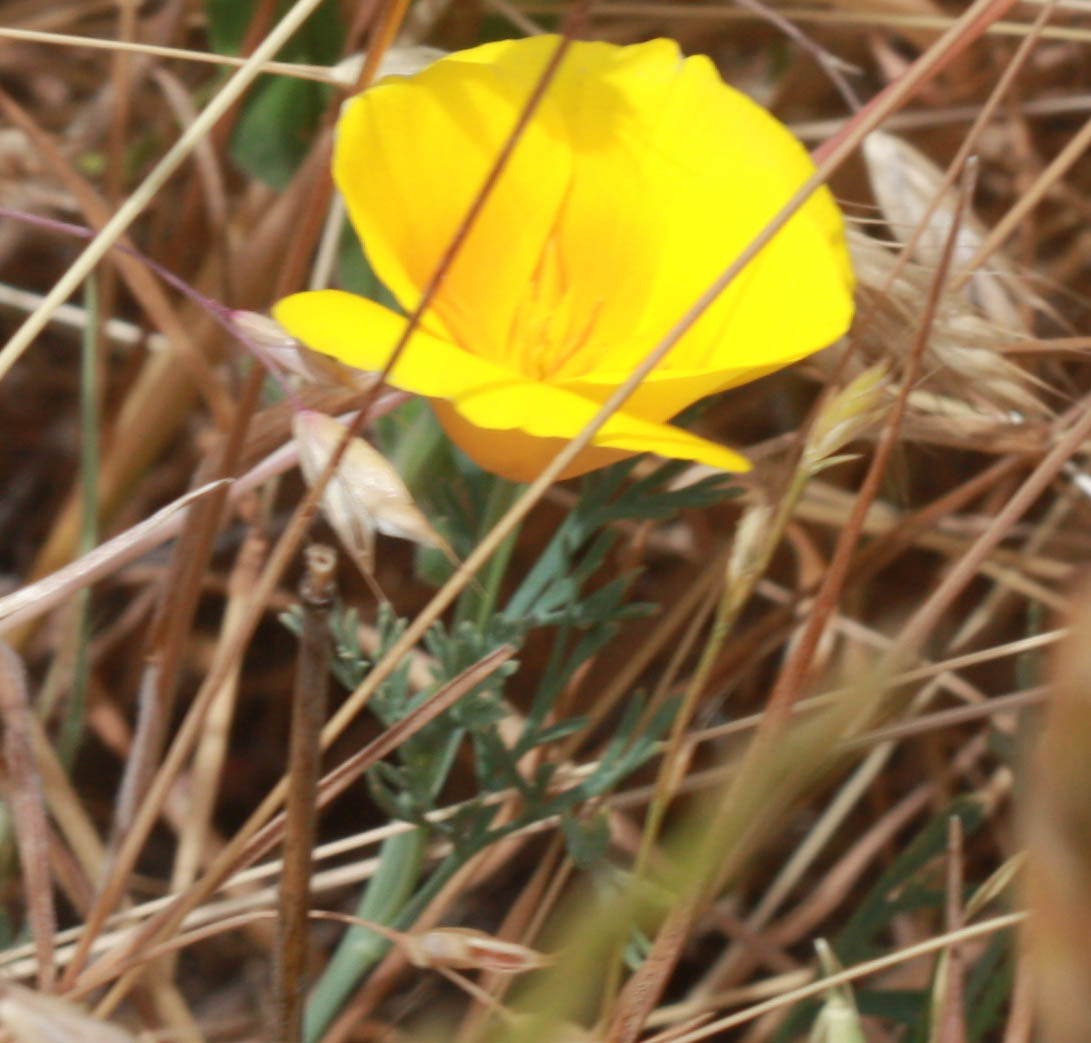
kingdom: Plantae
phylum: Tracheophyta
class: Magnoliopsida
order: Ranunculales
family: Papaveraceae
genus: Eschscholzia
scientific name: Eschscholzia californica
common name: California poppy
